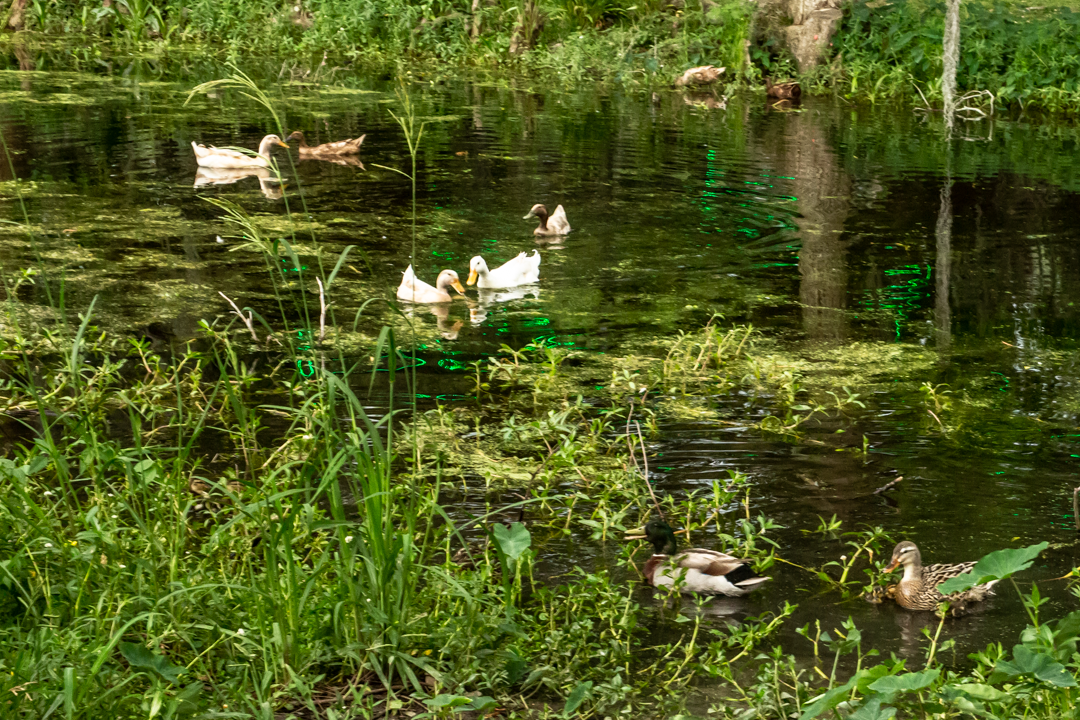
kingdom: Animalia
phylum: Chordata
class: Aves
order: Anseriformes
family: Anatidae
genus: Anas
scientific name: Anas platyrhynchos
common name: Mallard
